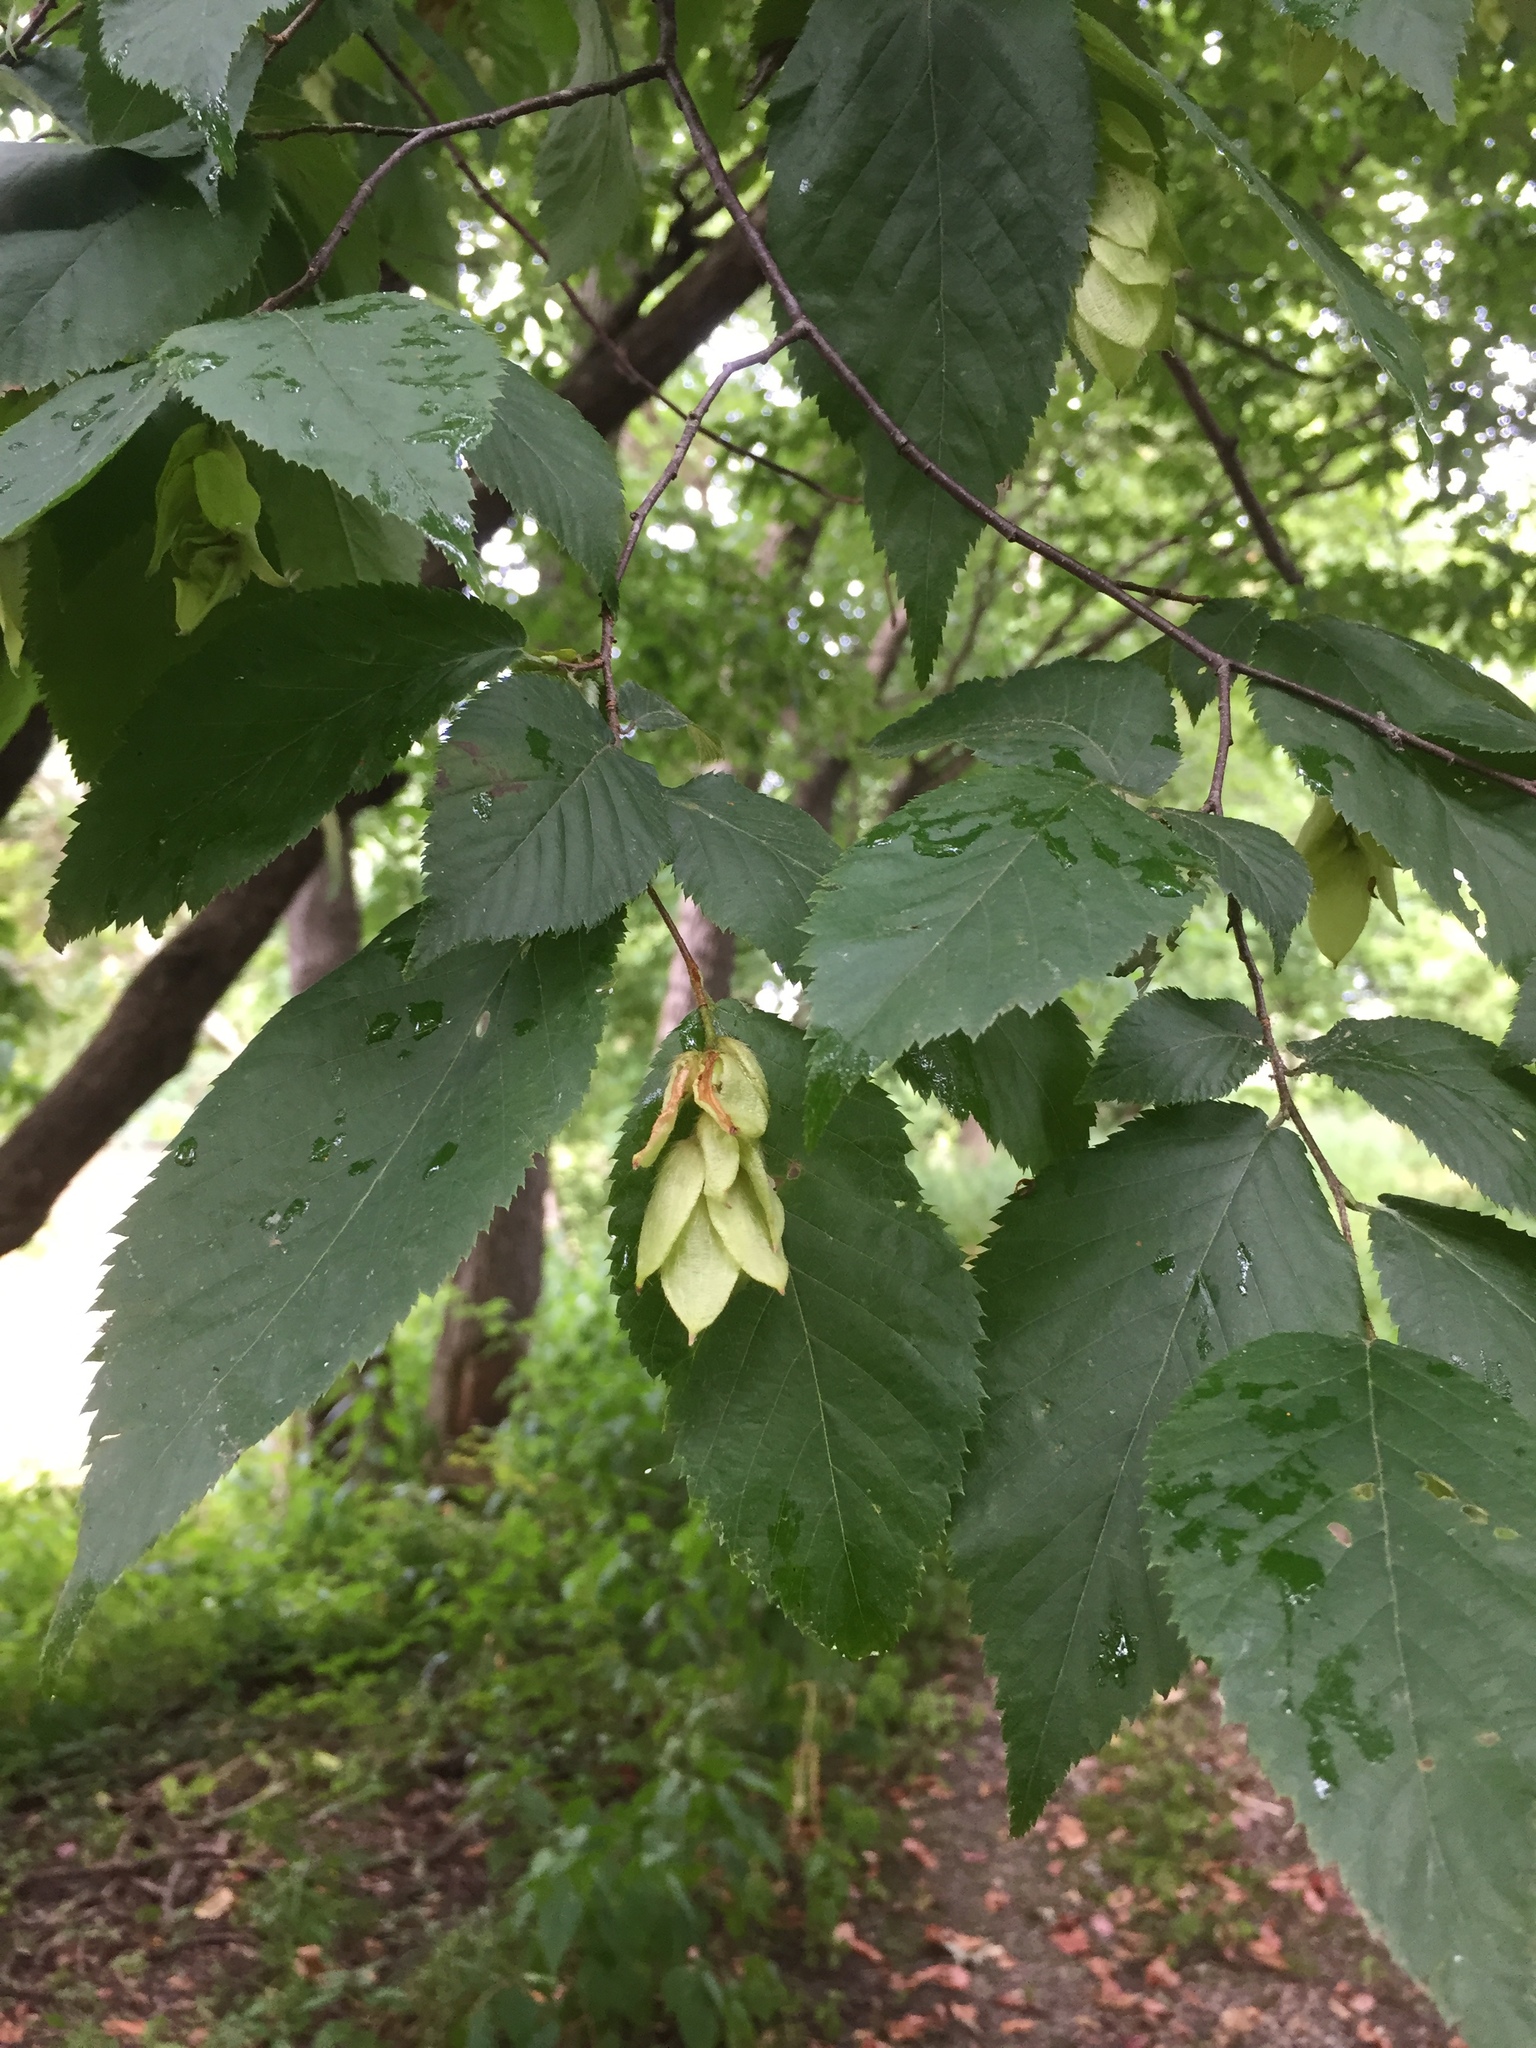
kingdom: Plantae
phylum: Tracheophyta
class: Magnoliopsida
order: Fagales
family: Betulaceae
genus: Ostrya
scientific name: Ostrya virginiana
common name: Ironwood
